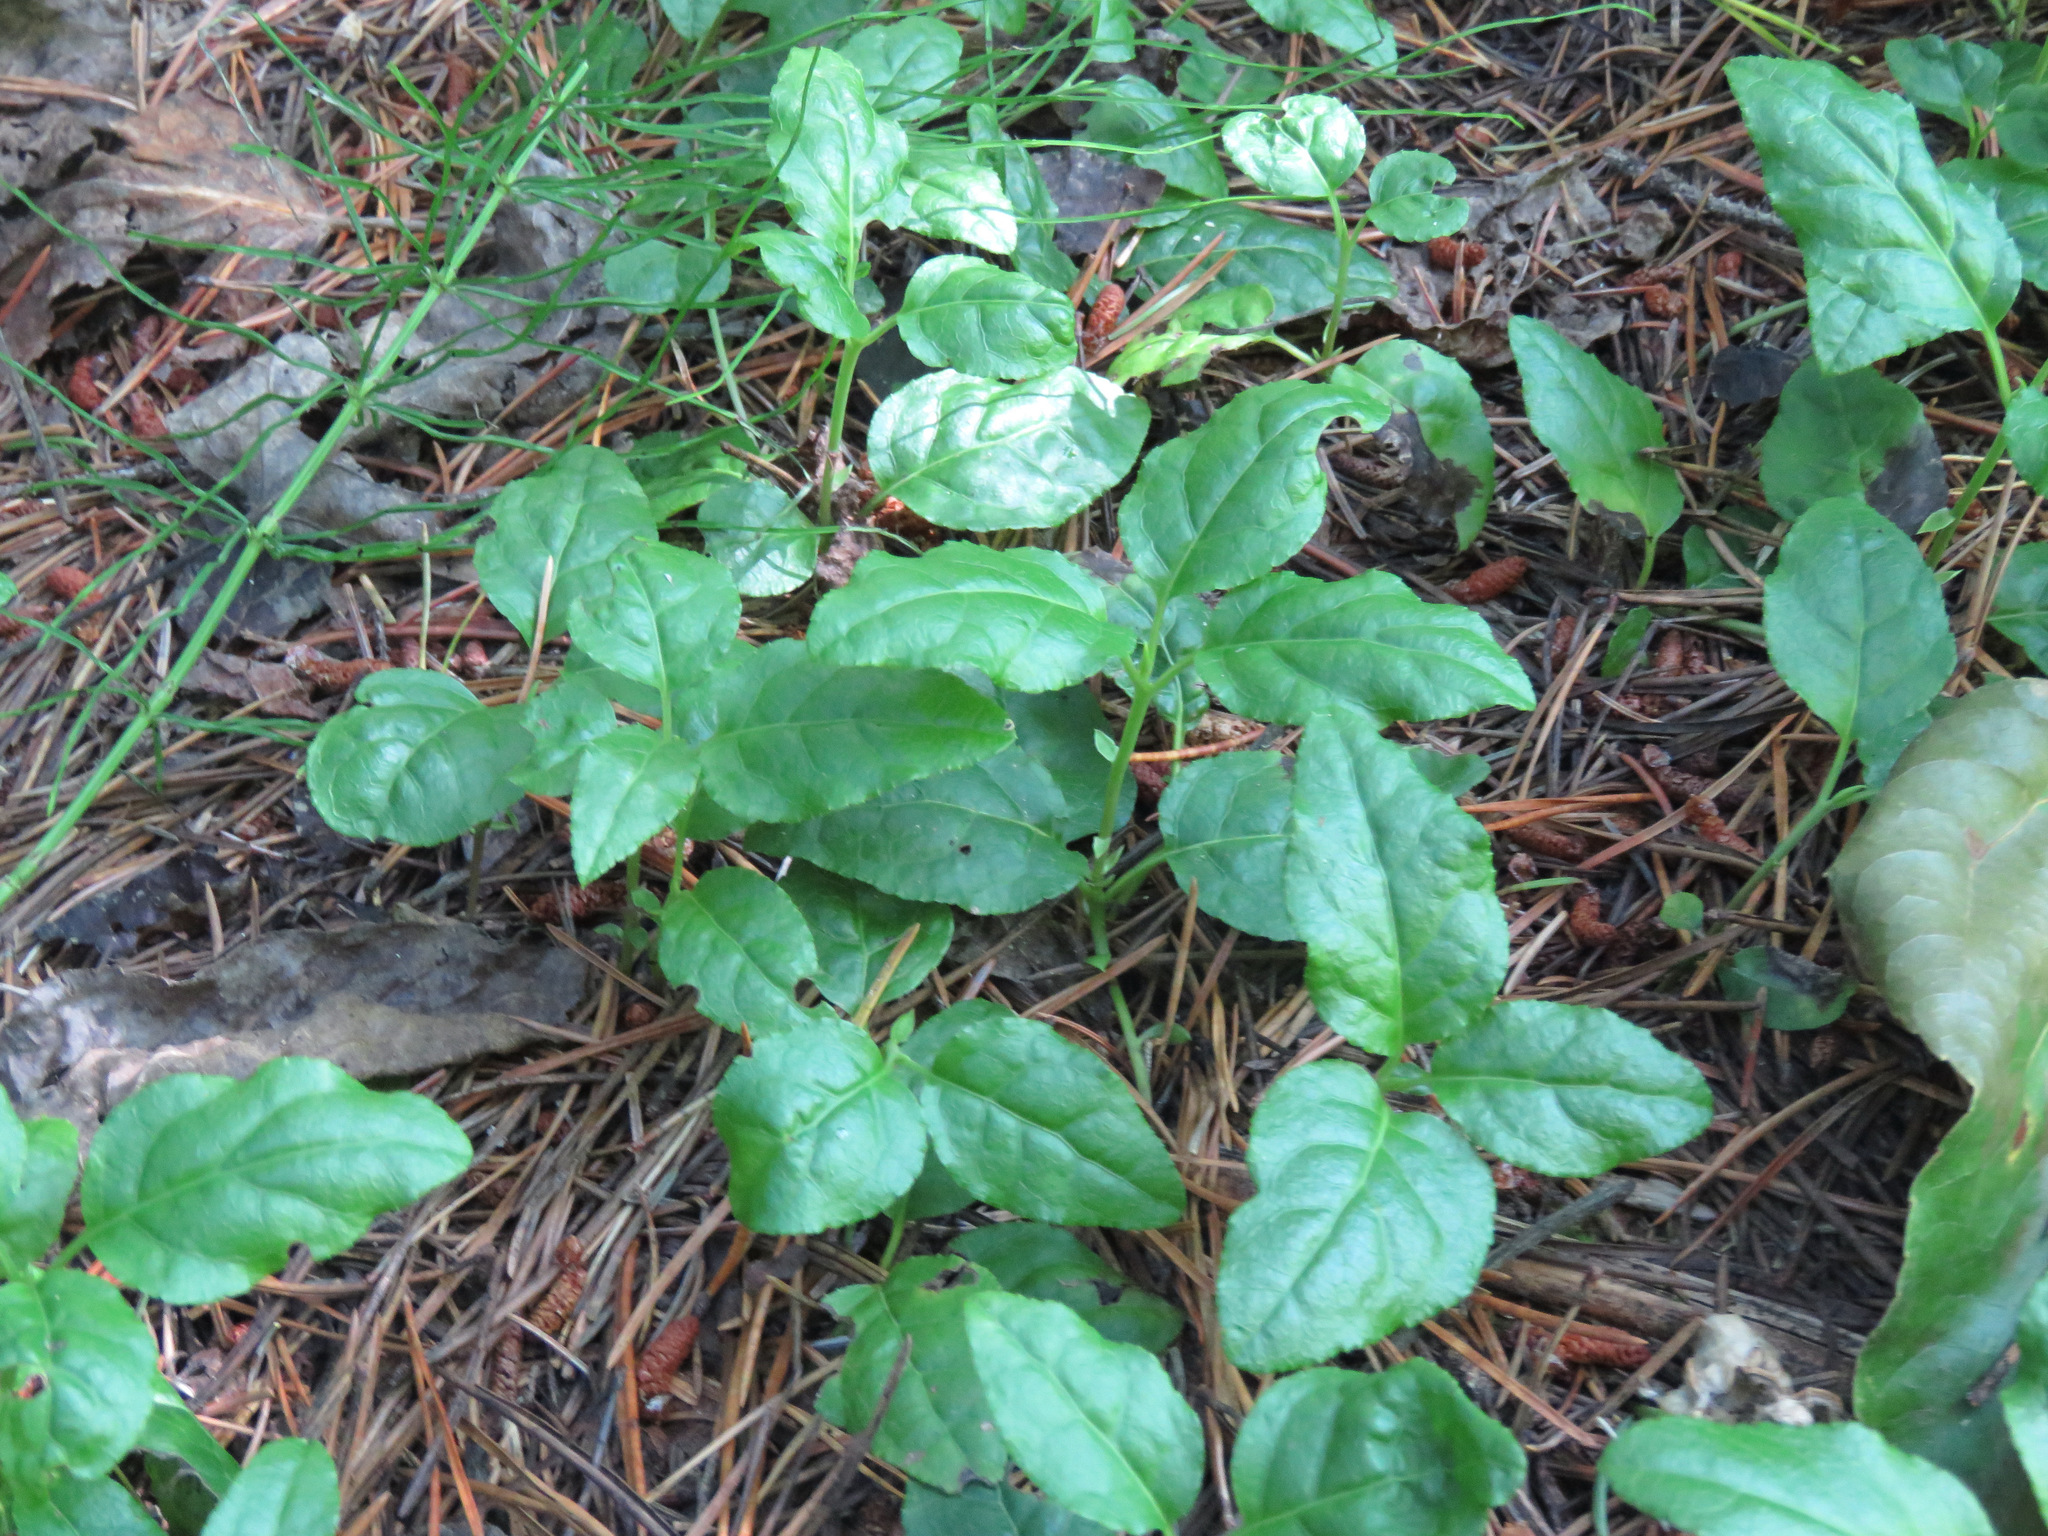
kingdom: Plantae
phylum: Tracheophyta
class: Magnoliopsida
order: Ericales
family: Ericaceae
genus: Orthilia
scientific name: Orthilia secunda
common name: One-sided orthilia
